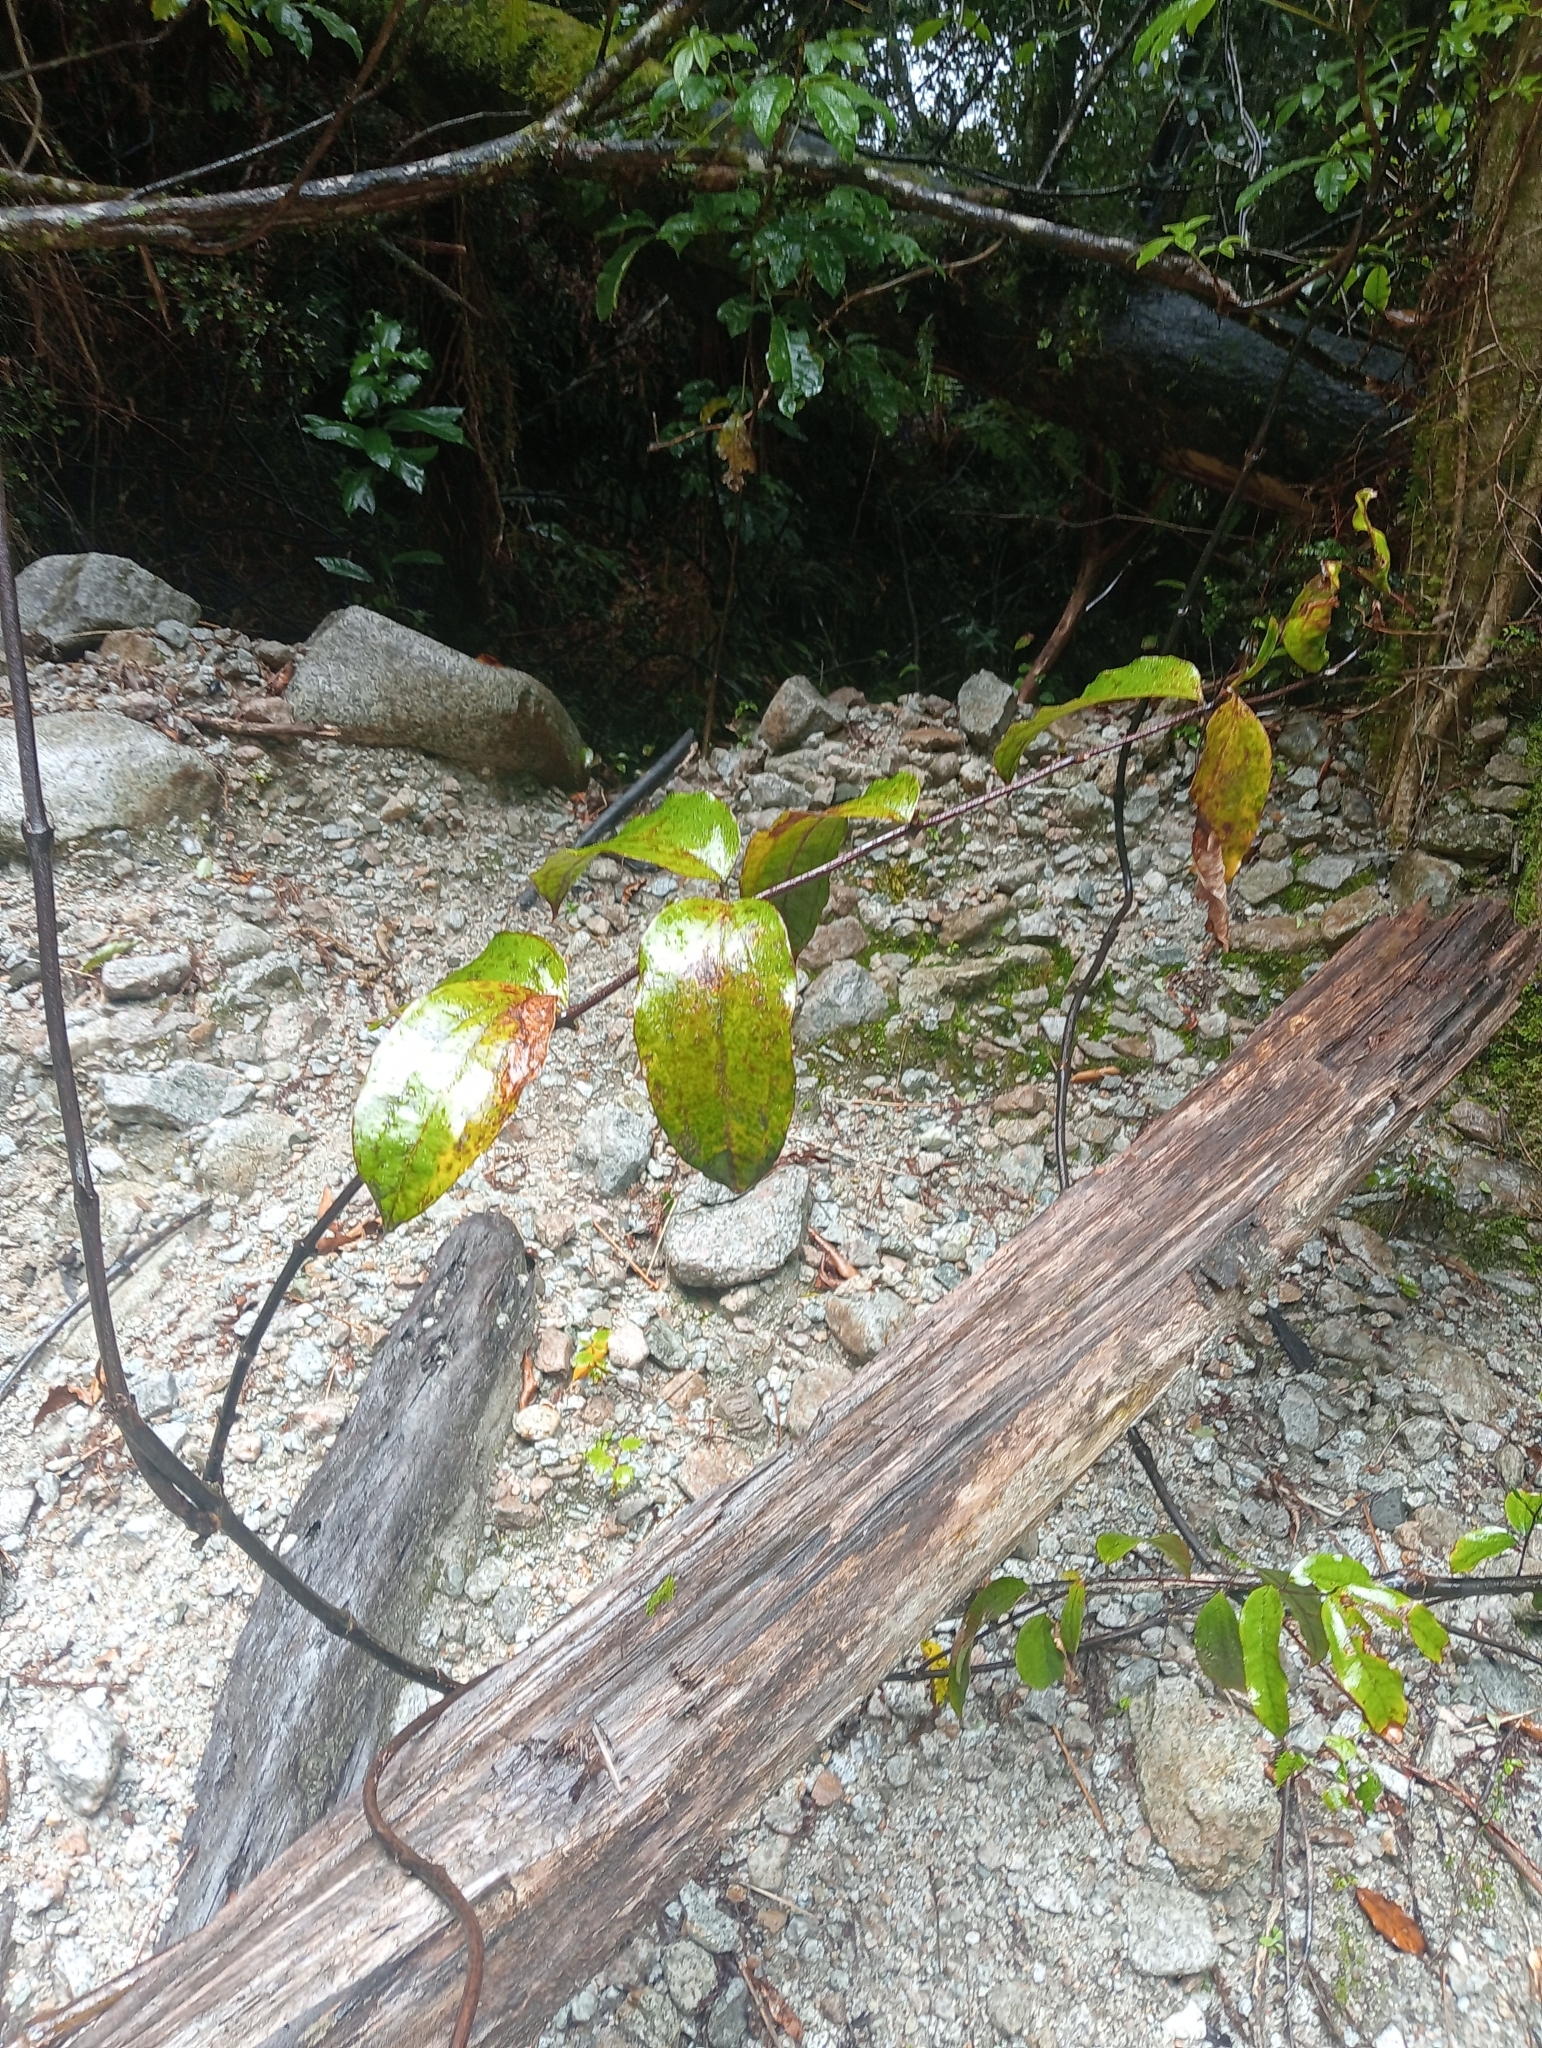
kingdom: Plantae
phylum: Tracheophyta
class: Liliopsida
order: Liliales
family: Ripogonaceae
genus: Ripogonum
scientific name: Ripogonum scandens
